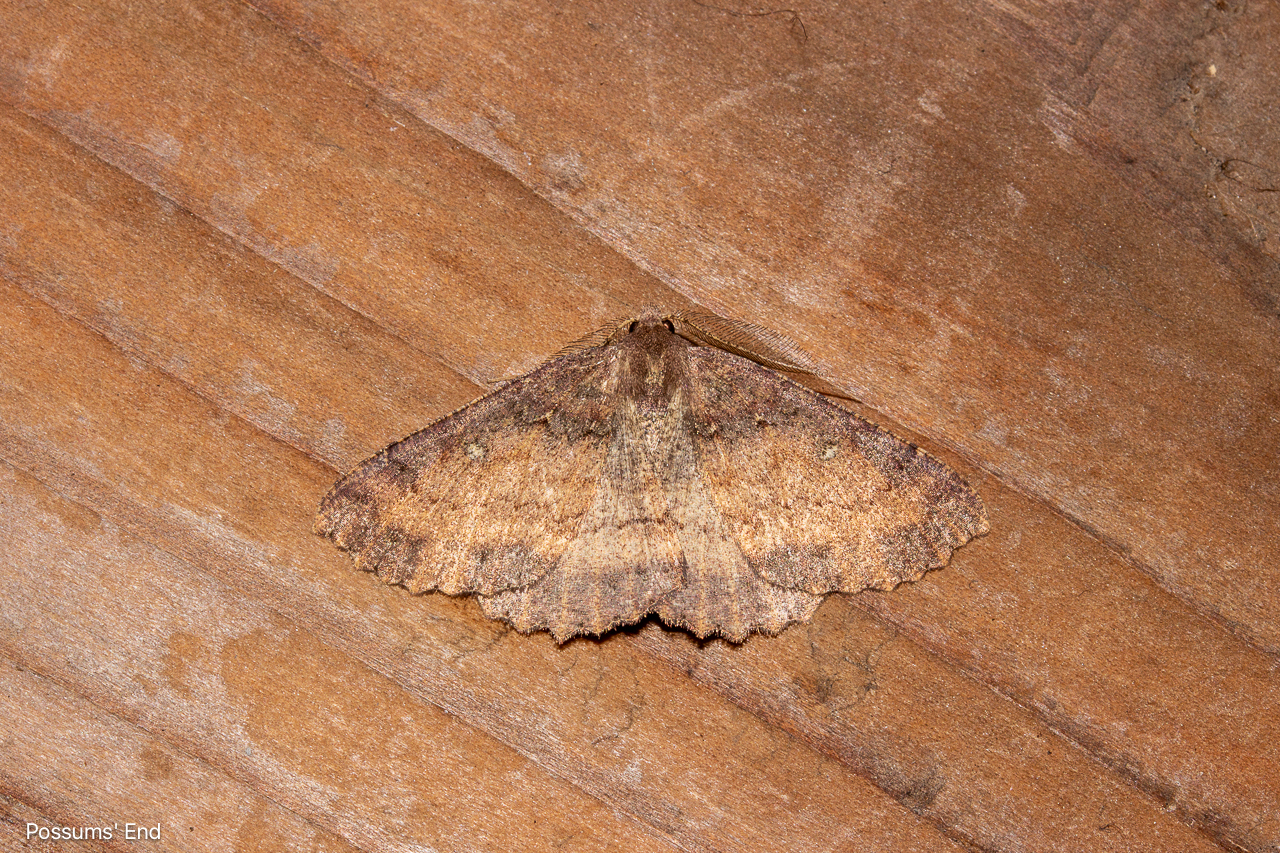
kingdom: Animalia
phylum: Arthropoda
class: Insecta
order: Lepidoptera
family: Geometridae
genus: Cleora
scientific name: Cleora scriptaria
